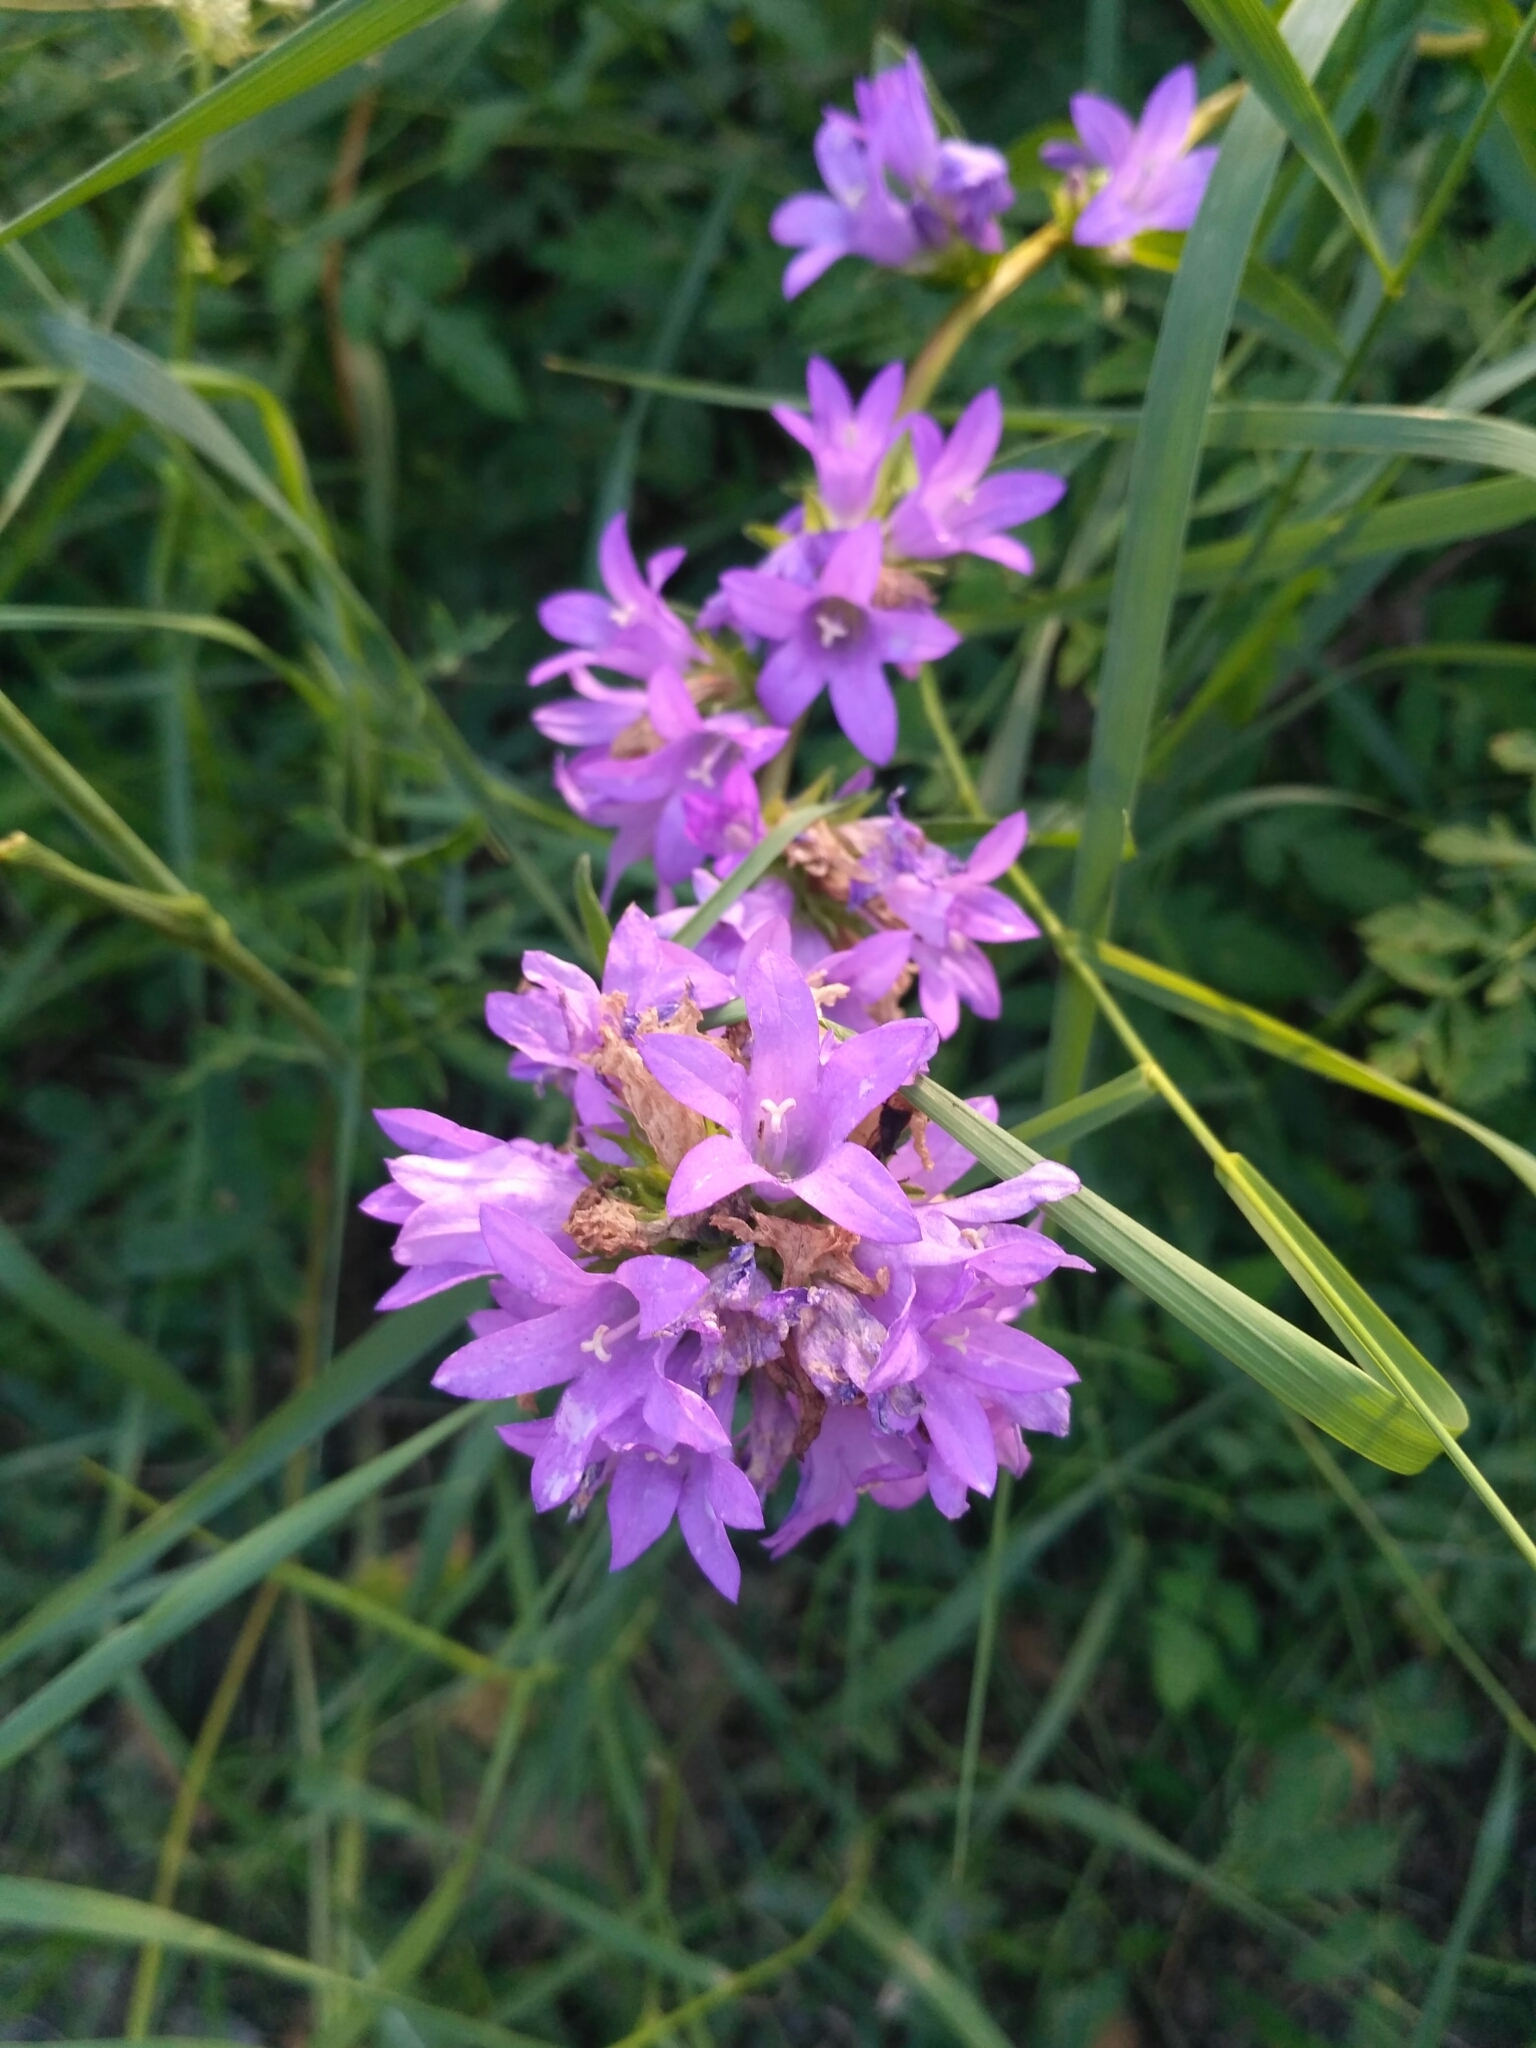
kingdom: Plantae
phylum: Tracheophyta
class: Magnoliopsida
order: Asterales
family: Campanulaceae
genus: Campanula
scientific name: Campanula glomerata
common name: Clustered bellflower
